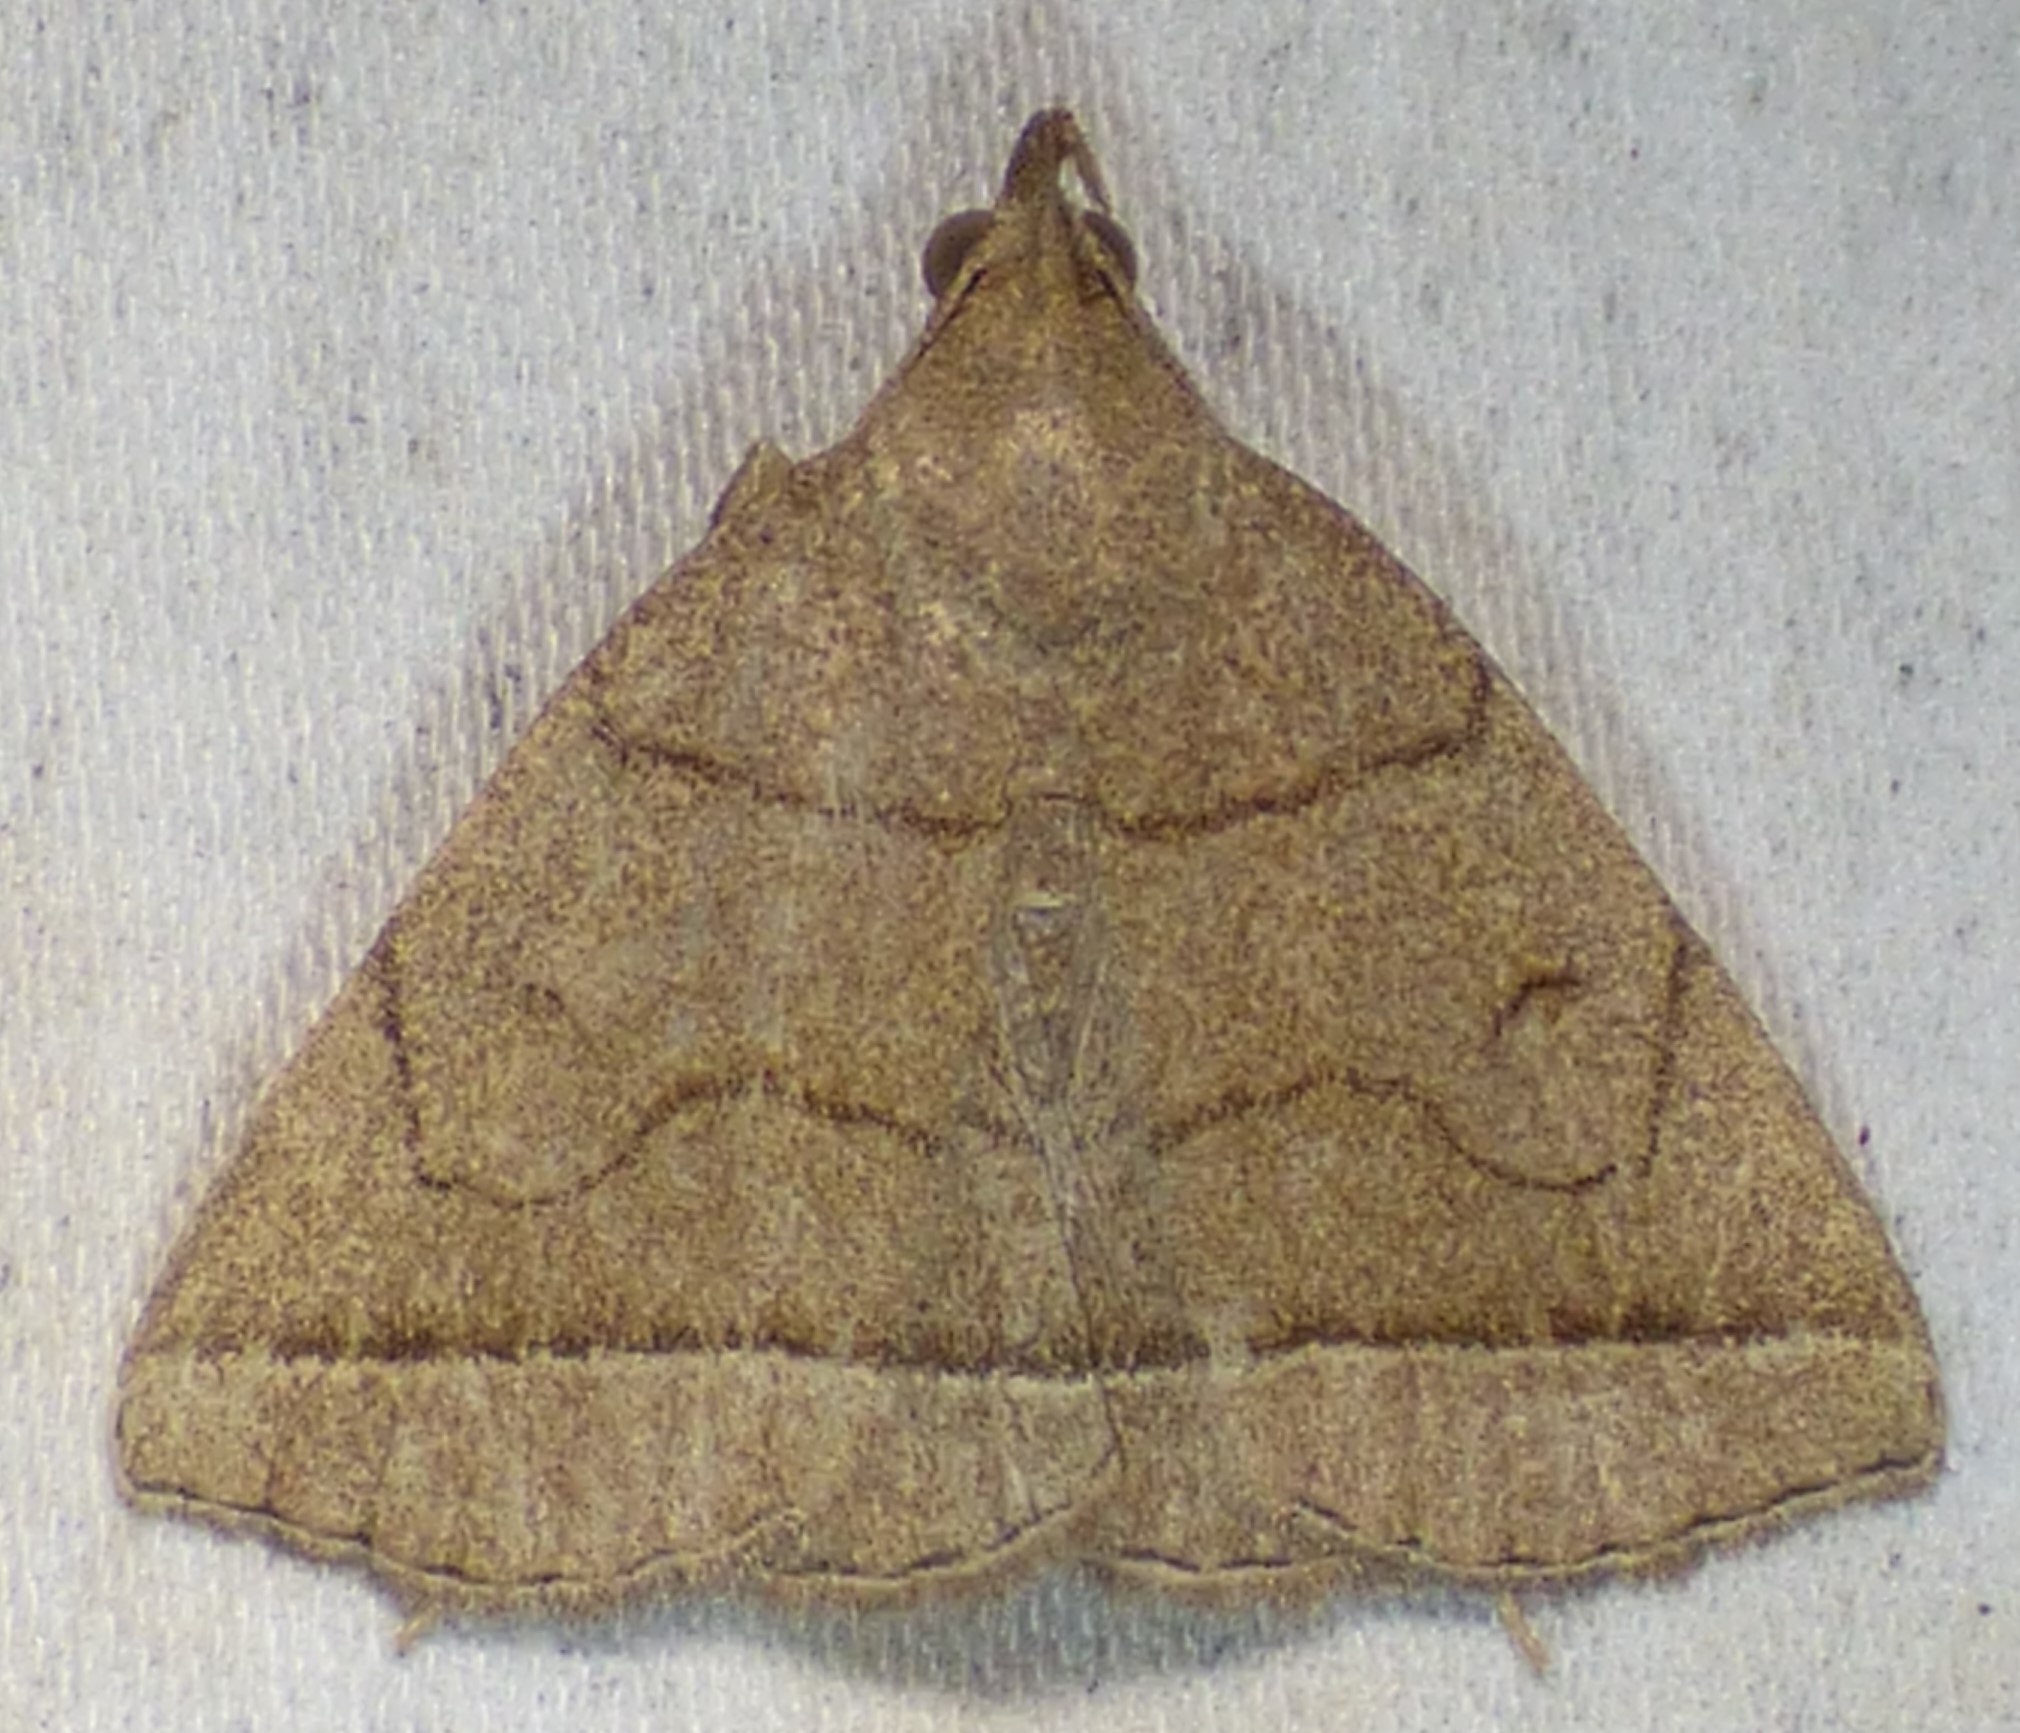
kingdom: Animalia
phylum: Arthropoda
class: Insecta
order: Lepidoptera
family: Erebidae
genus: Zanclognatha
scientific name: Zanclognatha cruralis
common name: Early fan-foot
